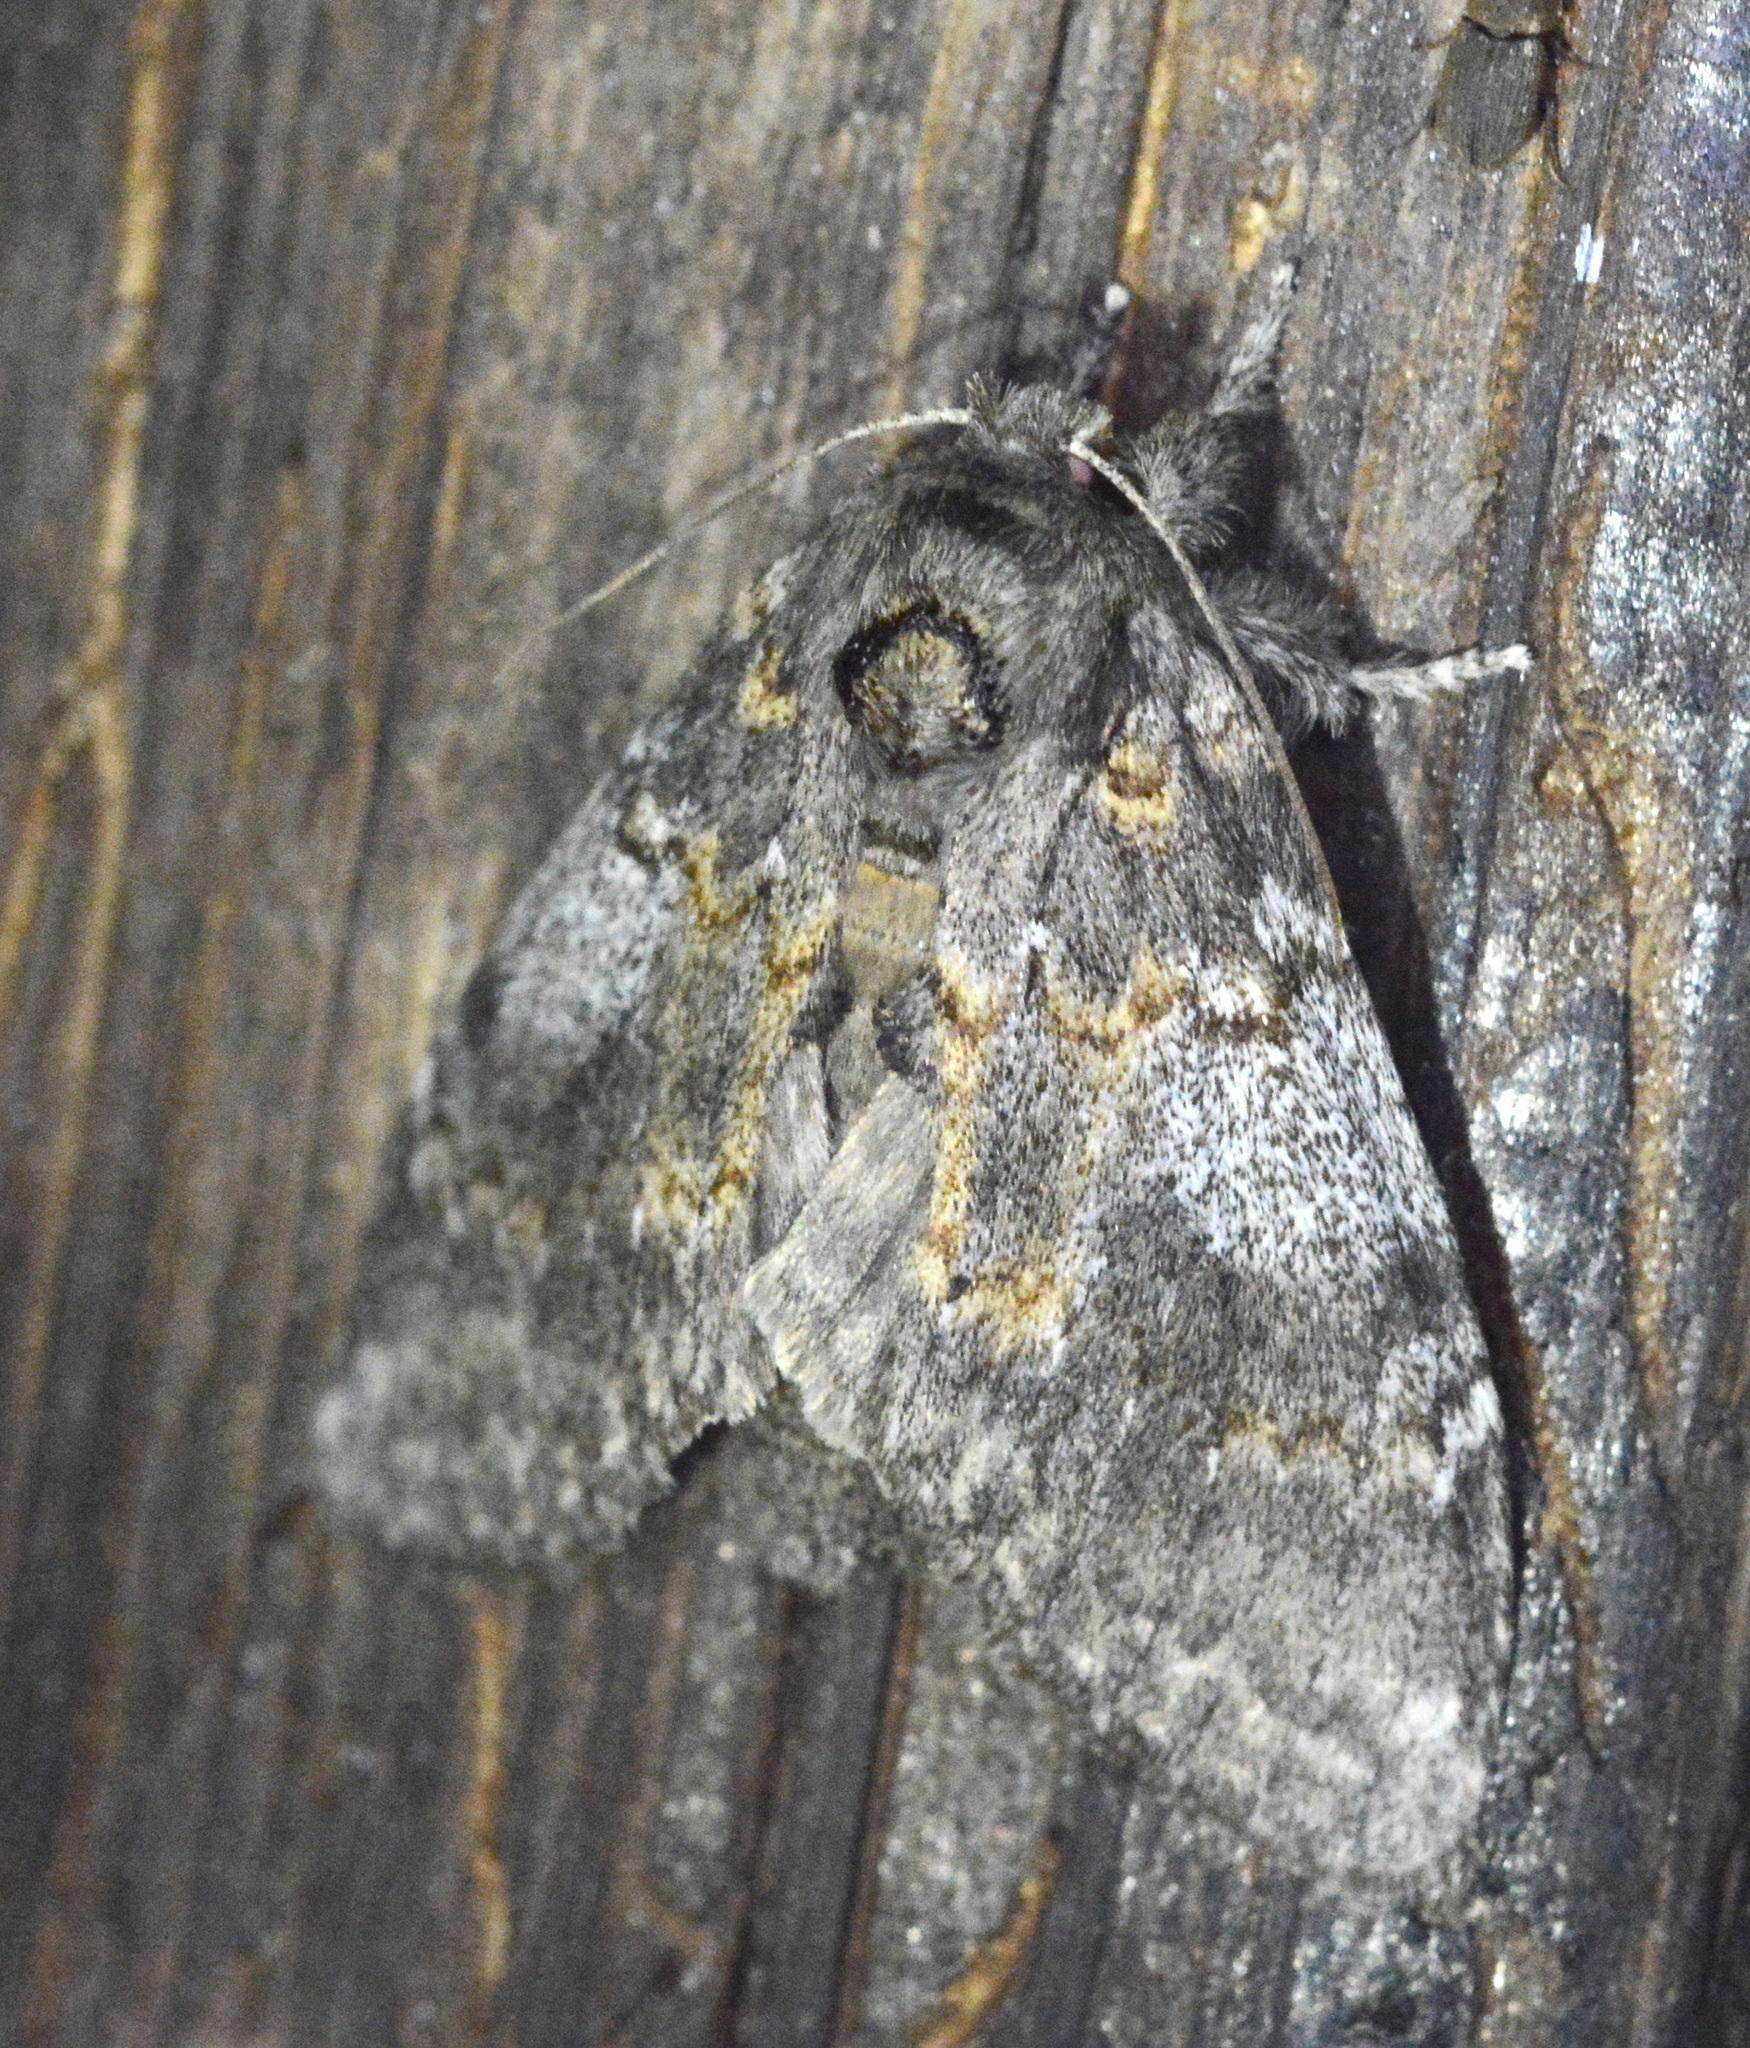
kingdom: Animalia
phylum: Arthropoda
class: Insecta
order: Lepidoptera
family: Notodontidae
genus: Peridea
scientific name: Peridea angulosa
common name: Angulose prominent
